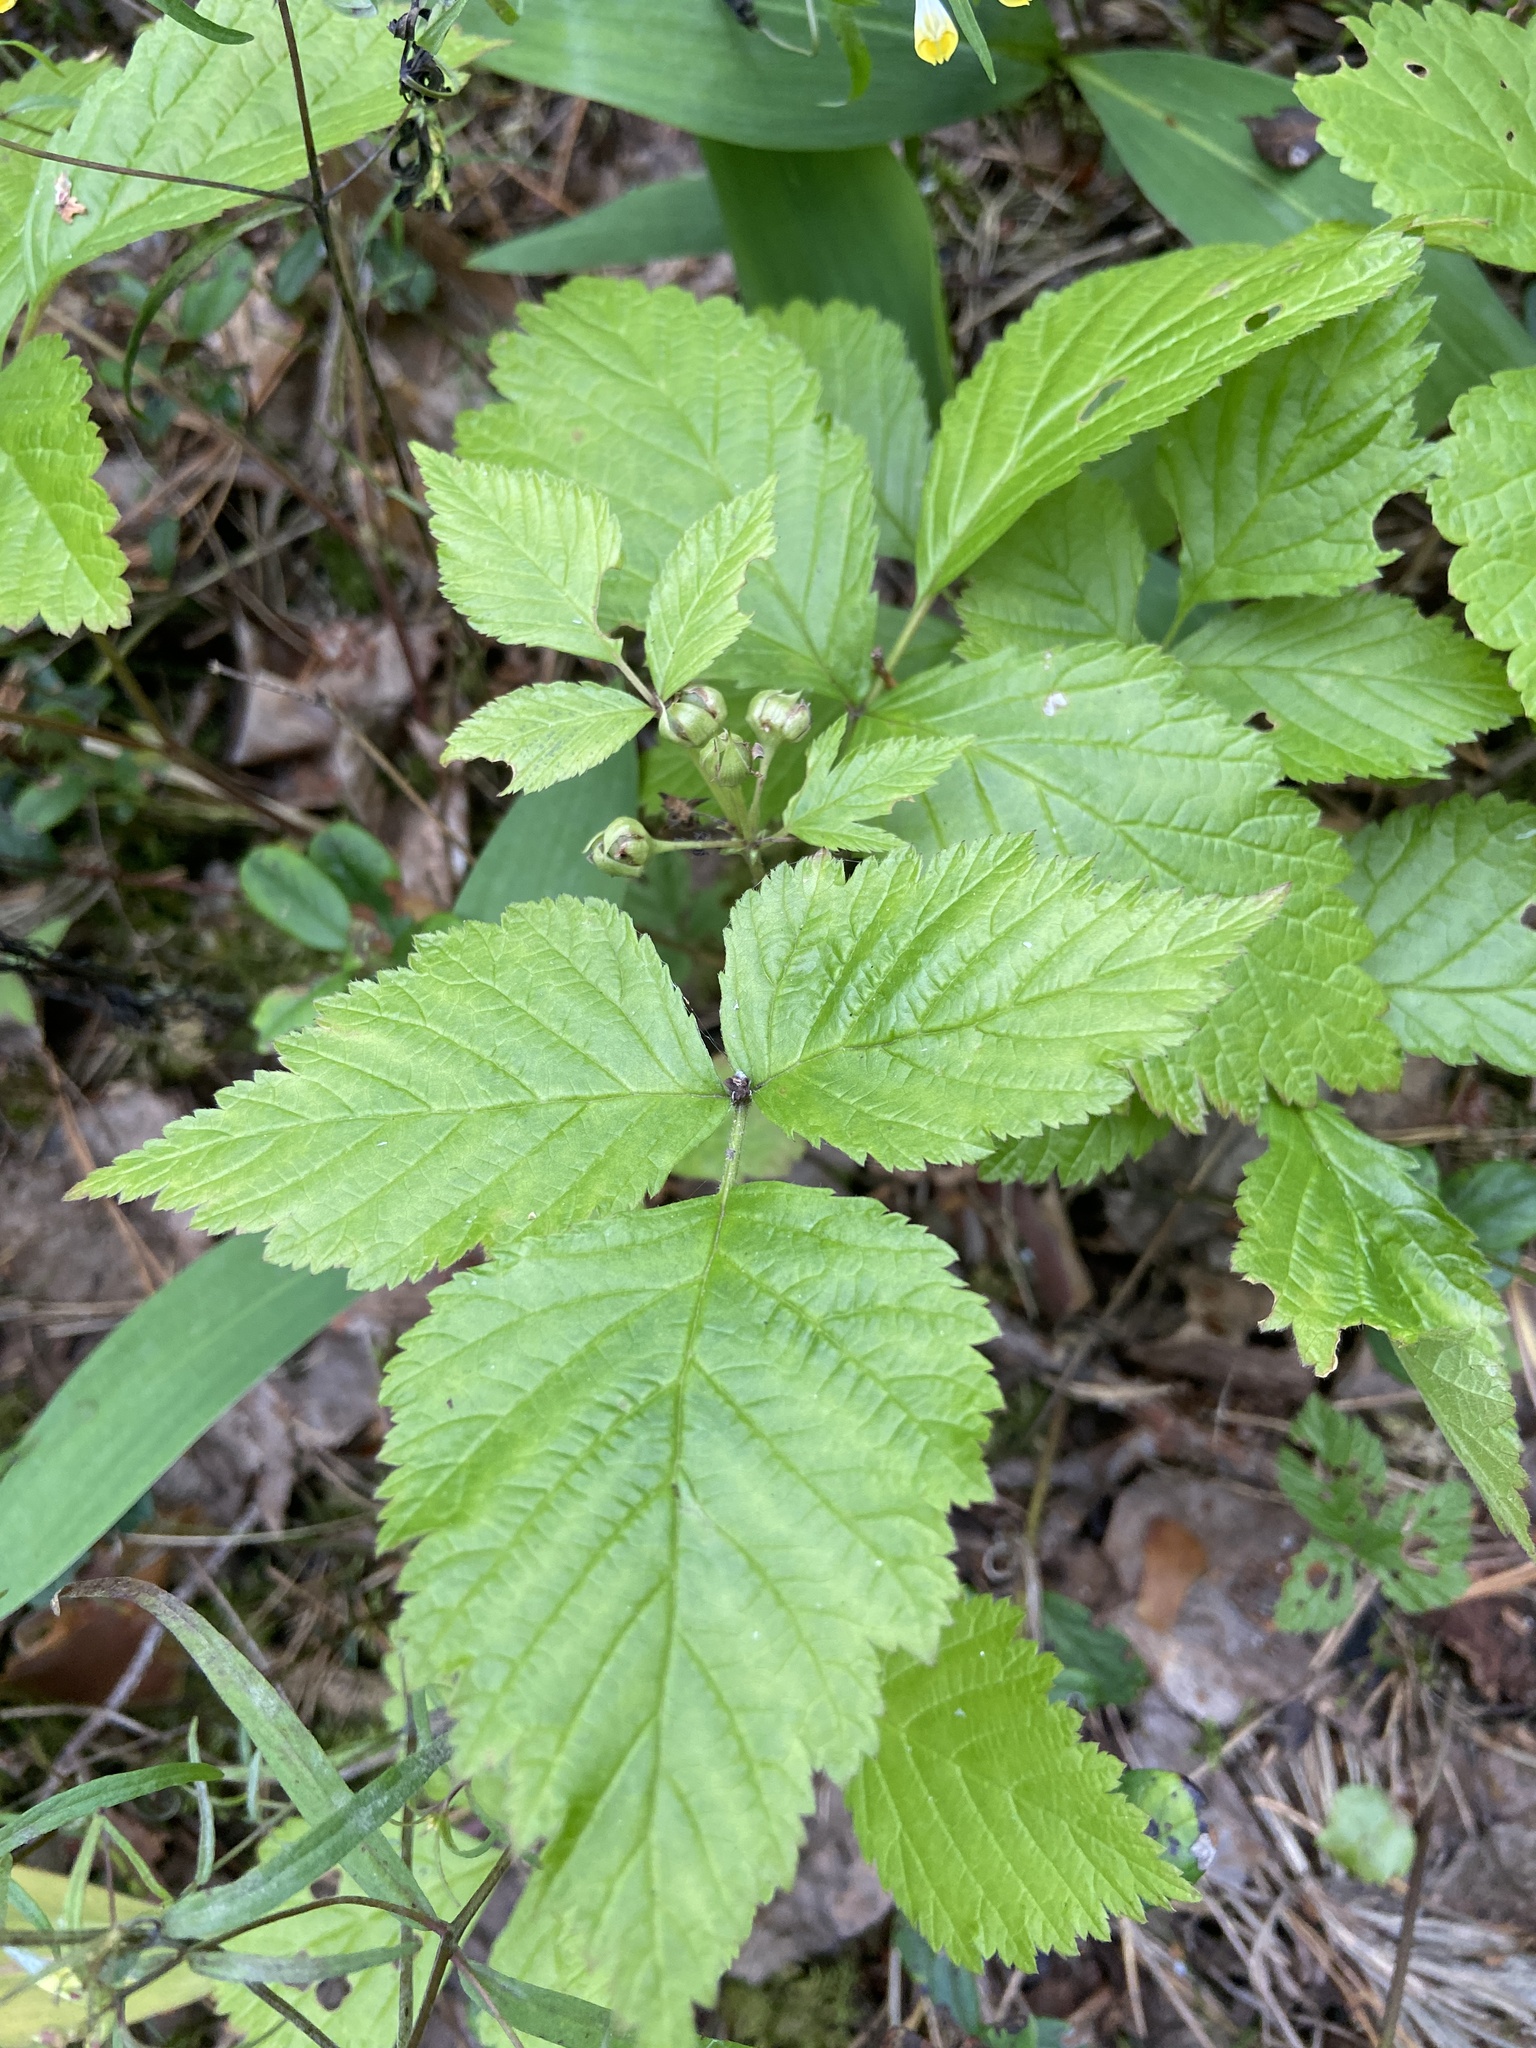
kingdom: Plantae
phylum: Tracheophyta
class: Magnoliopsida
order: Rosales
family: Rosaceae
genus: Rubus
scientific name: Rubus saxatilis
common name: Stone bramble
